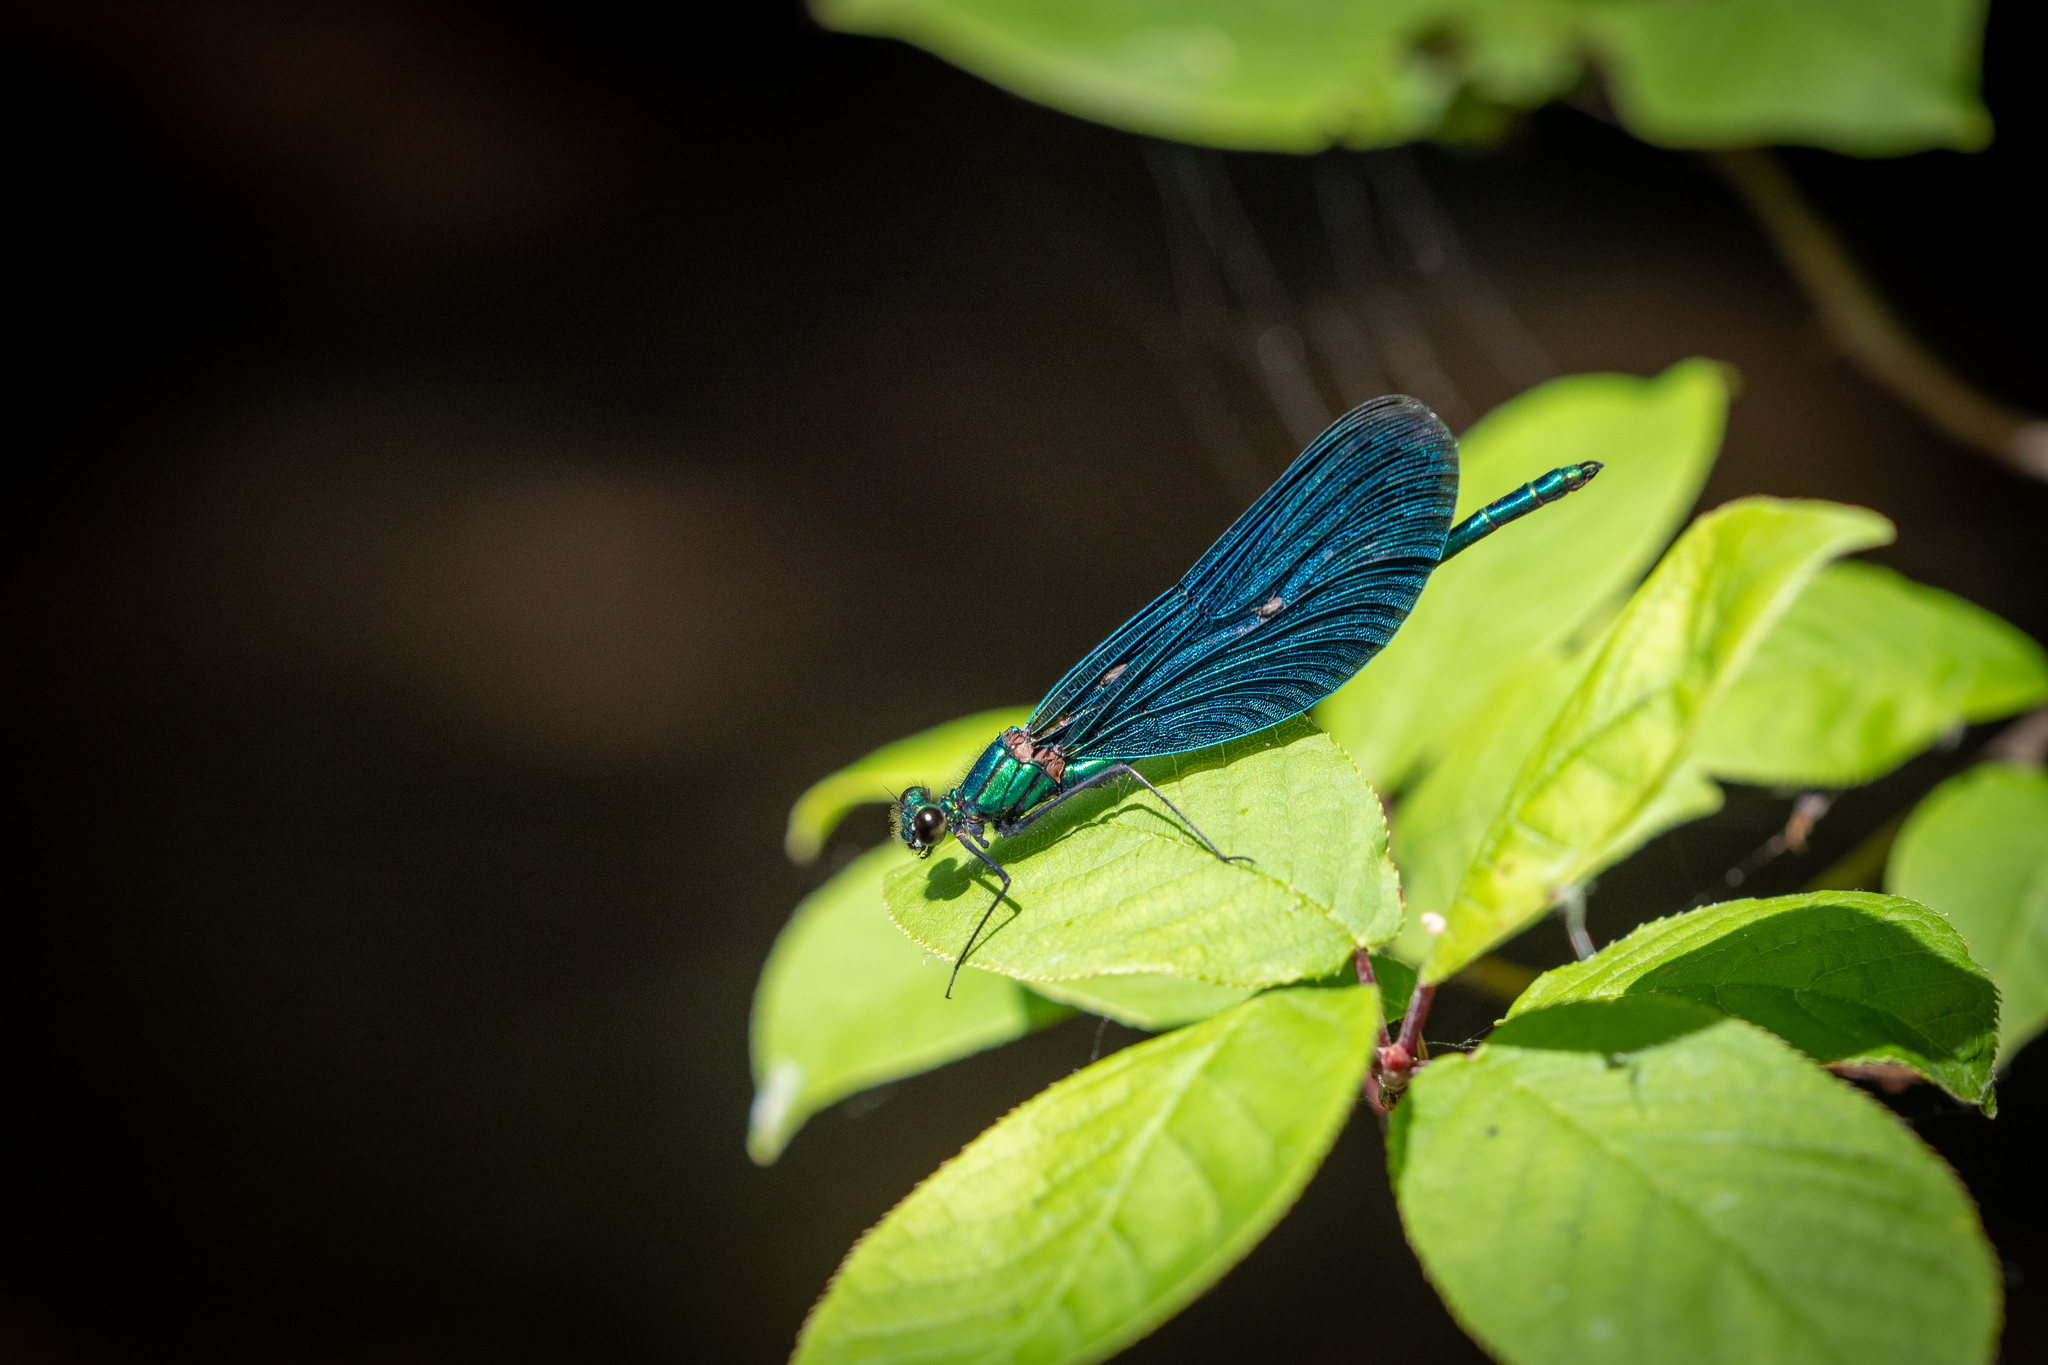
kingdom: Animalia
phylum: Arthropoda
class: Insecta
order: Odonata
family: Calopterygidae
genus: Calopteryx
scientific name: Calopteryx virgo
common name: Beautiful demoiselle
